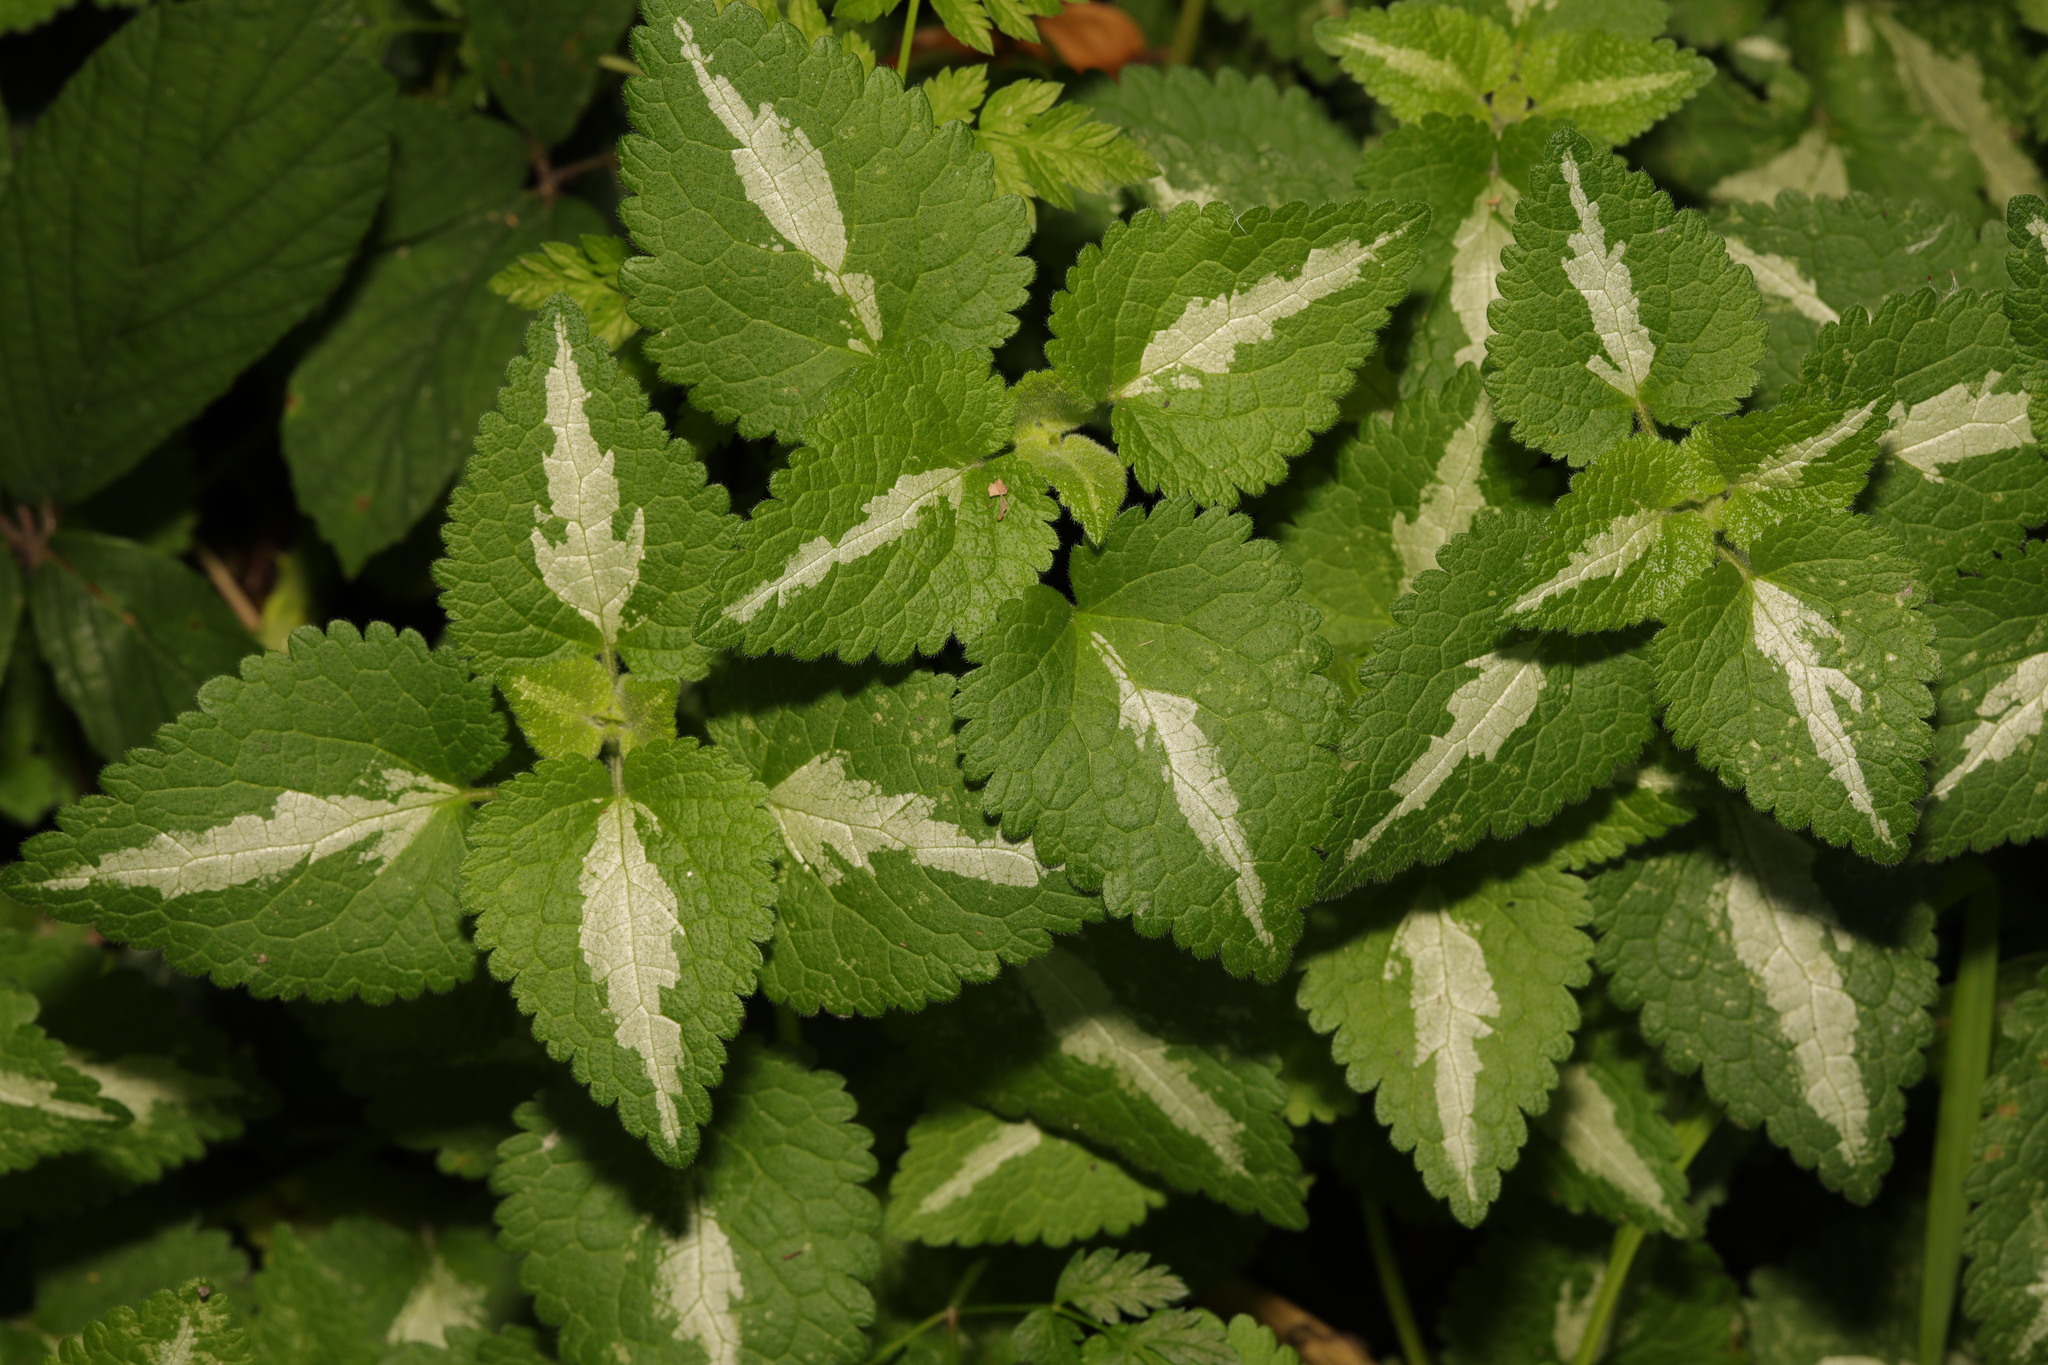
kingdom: Plantae
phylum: Tracheophyta
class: Magnoliopsida
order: Lamiales
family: Lamiaceae
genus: Lamium
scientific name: Lamium maculatum
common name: Spotted dead-nettle
